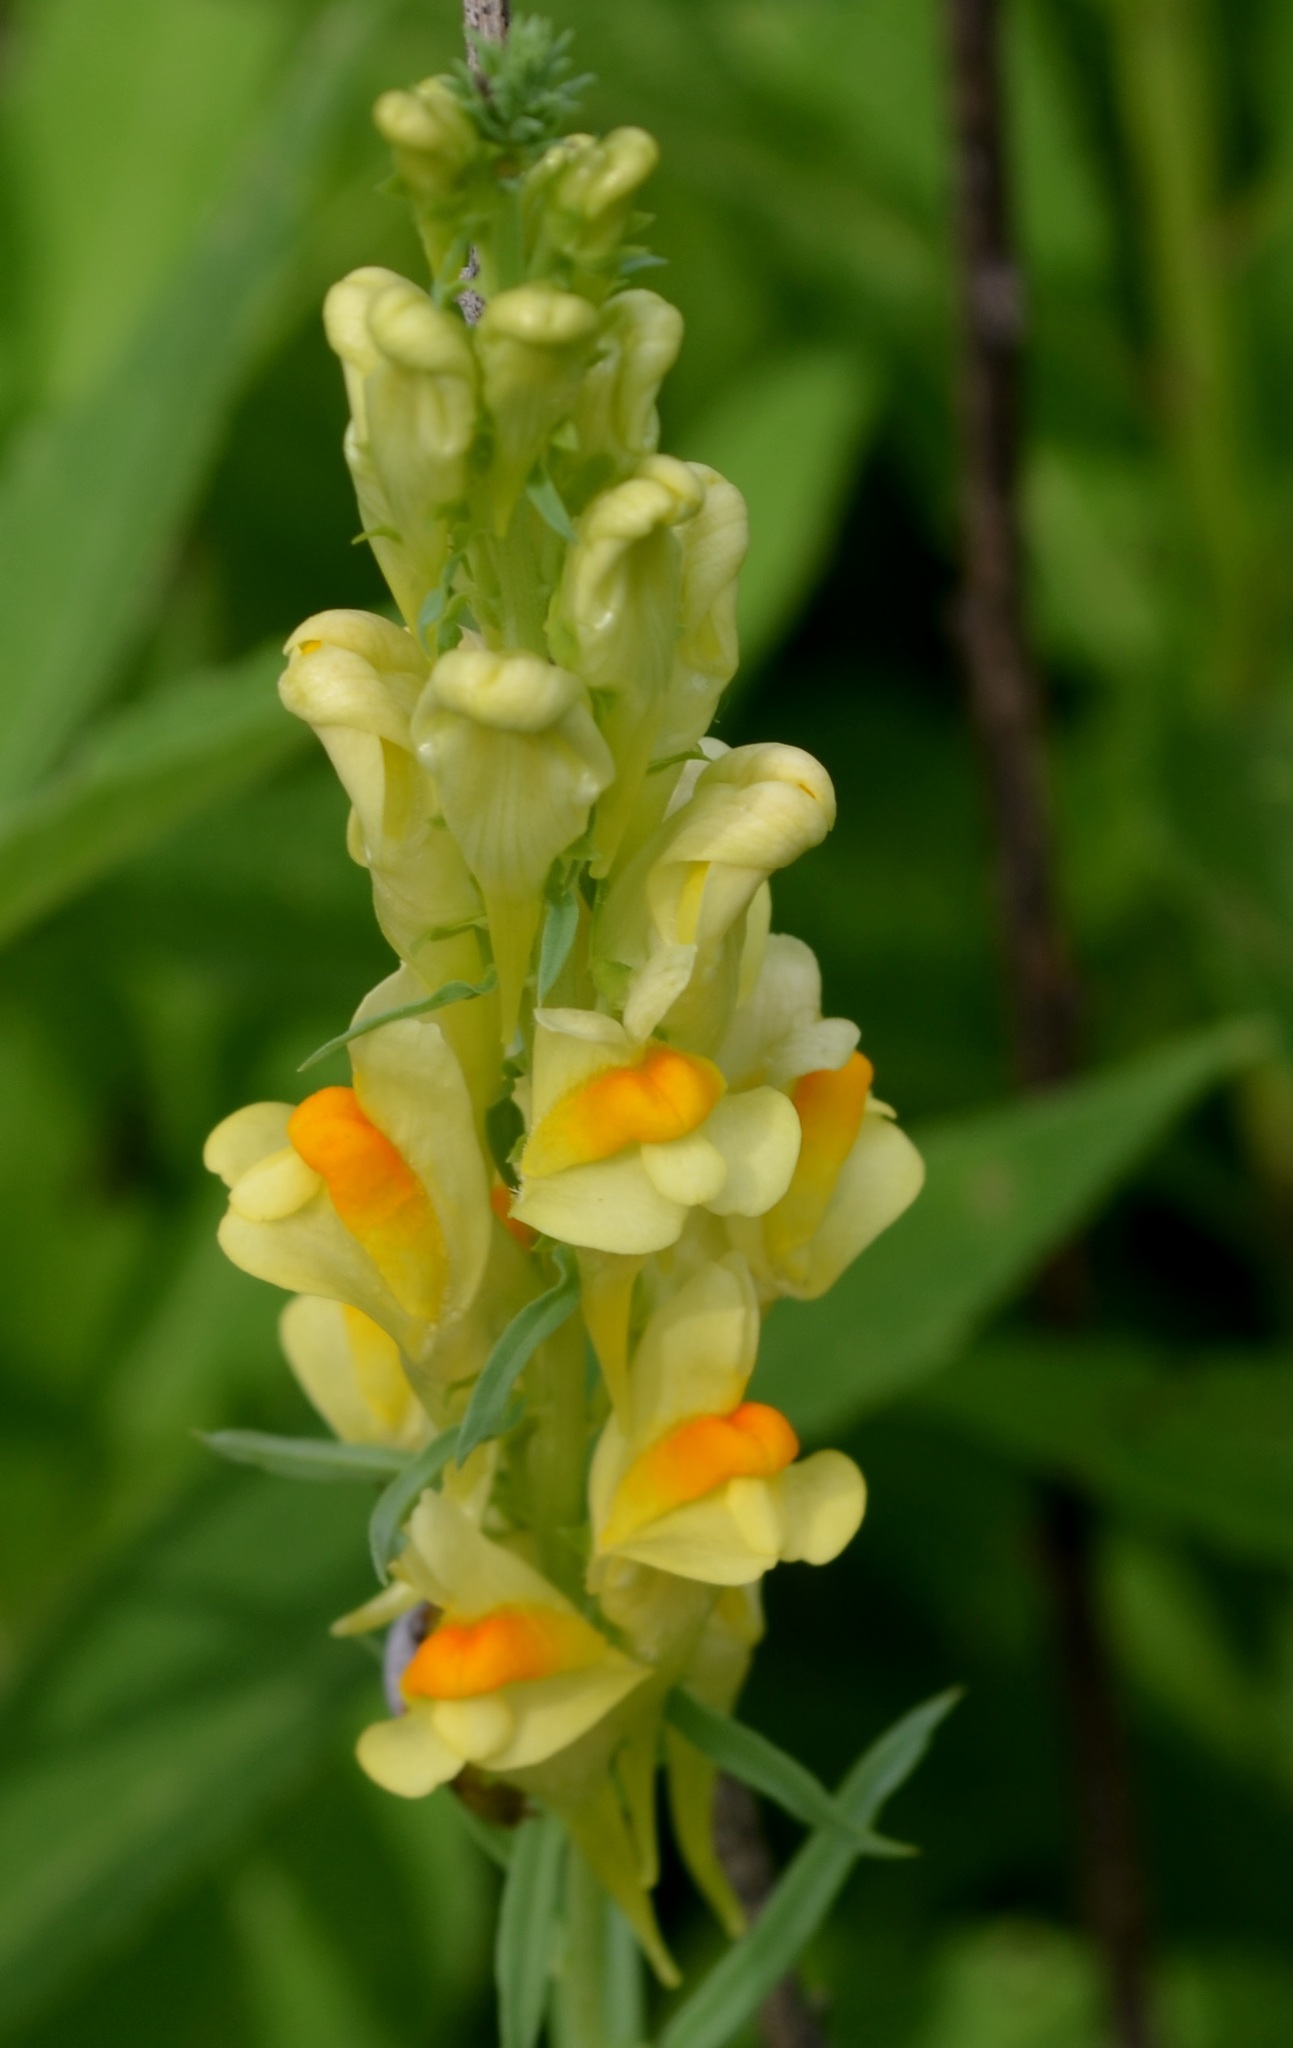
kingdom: Plantae
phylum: Tracheophyta
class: Magnoliopsida
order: Lamiales
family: Plantaginaceae
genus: Linaria
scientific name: Linaria vulgaris
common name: Butter and eggs
